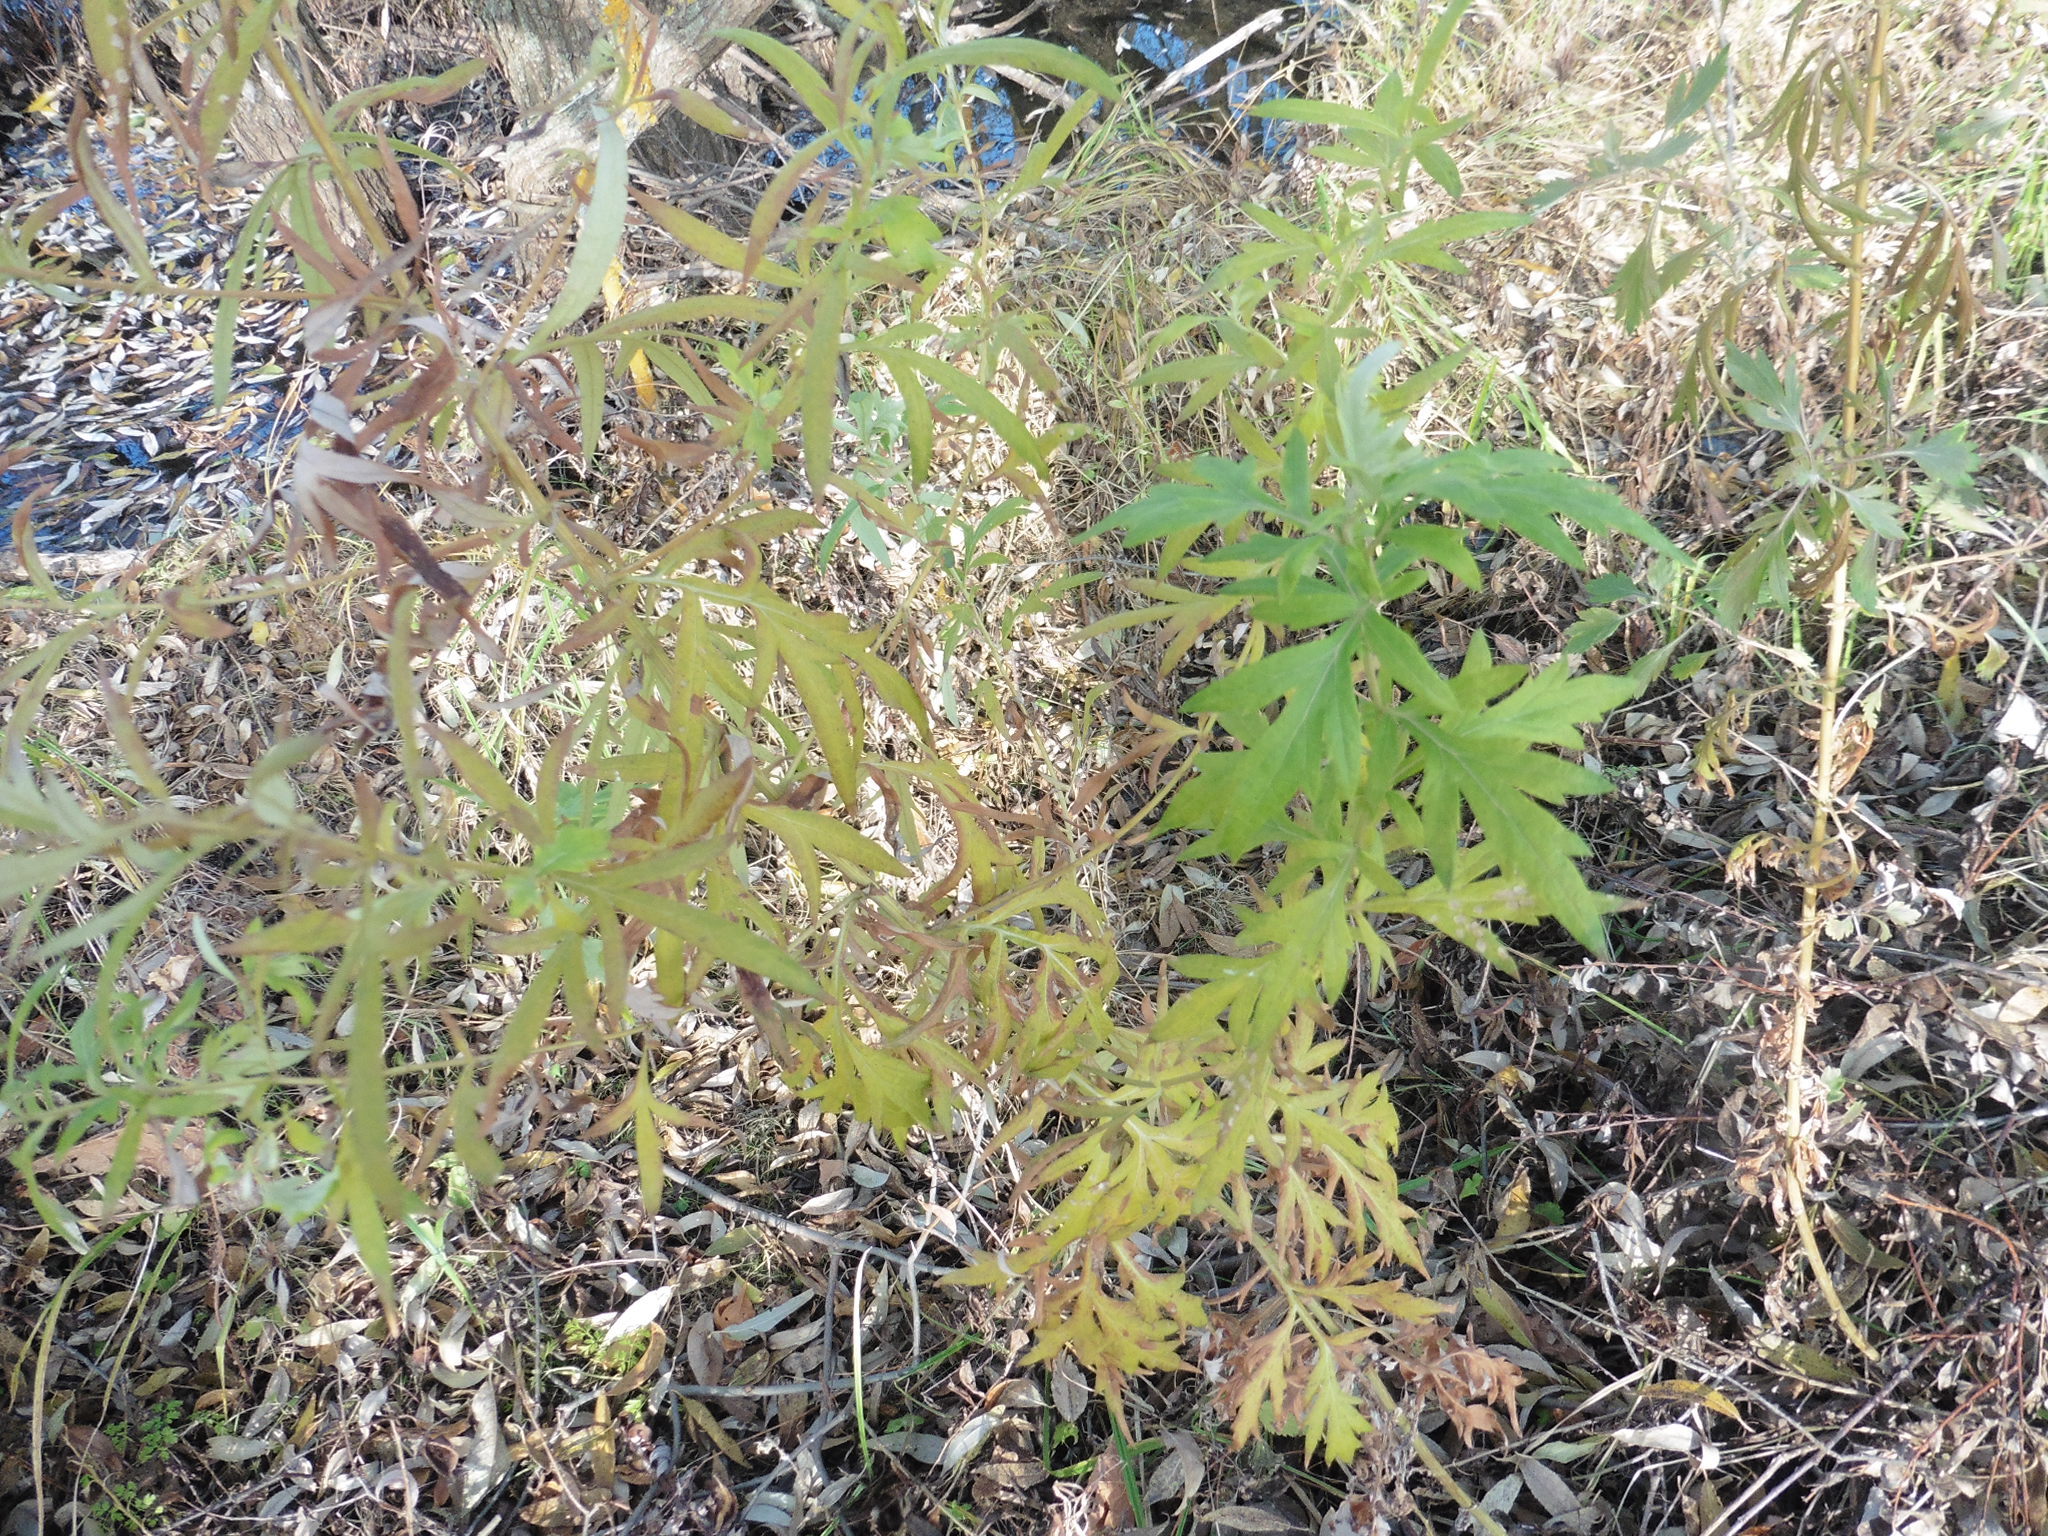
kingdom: Plantae
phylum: Tracheophyta
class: Magnoliopsida
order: Asterales
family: Asteraceae
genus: Artemisia
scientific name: Artemisia vulgaris
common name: Mugwort
